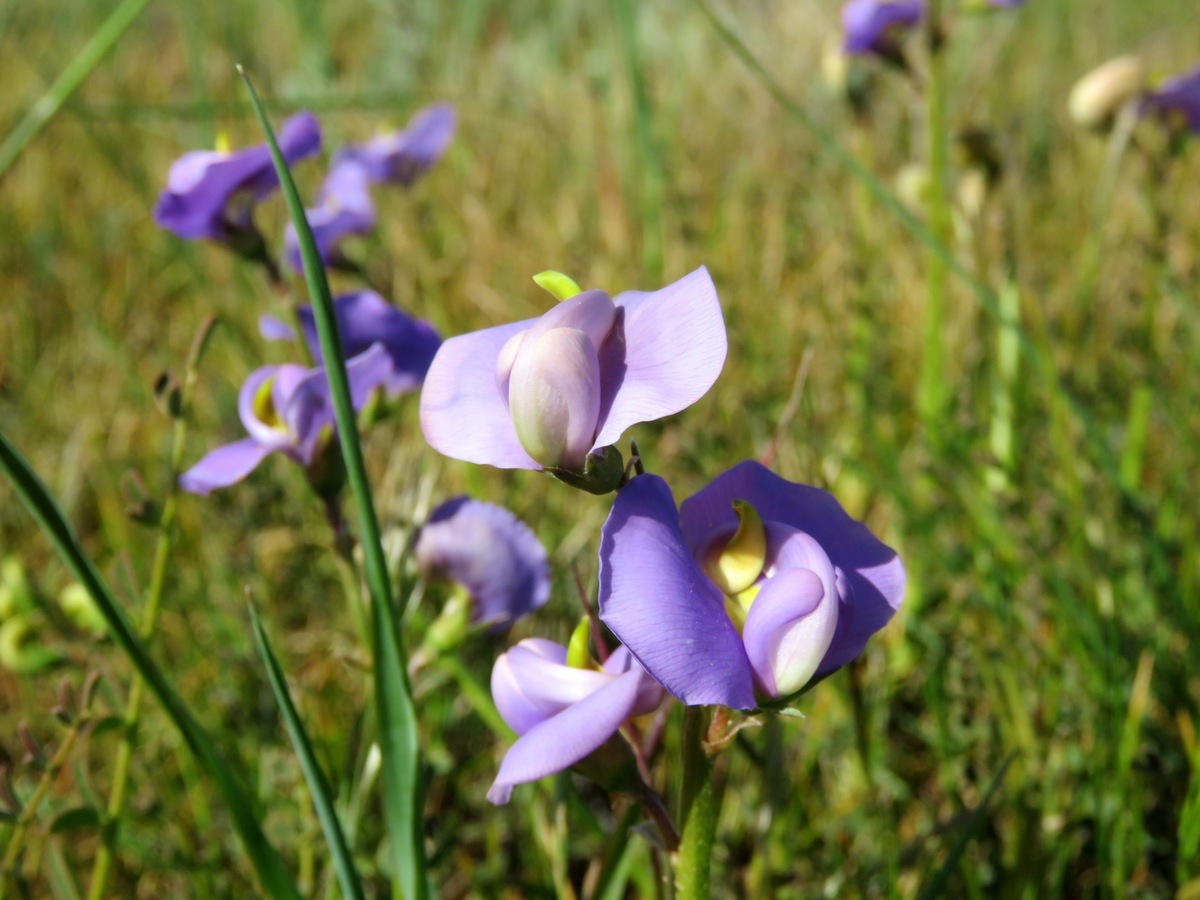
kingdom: Plantae
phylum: Tracheophyta
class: Magnoliopsida
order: Fabales
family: Fabaceae
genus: Swainsona
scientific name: Swainsona procumbens
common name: Broughton-pea
